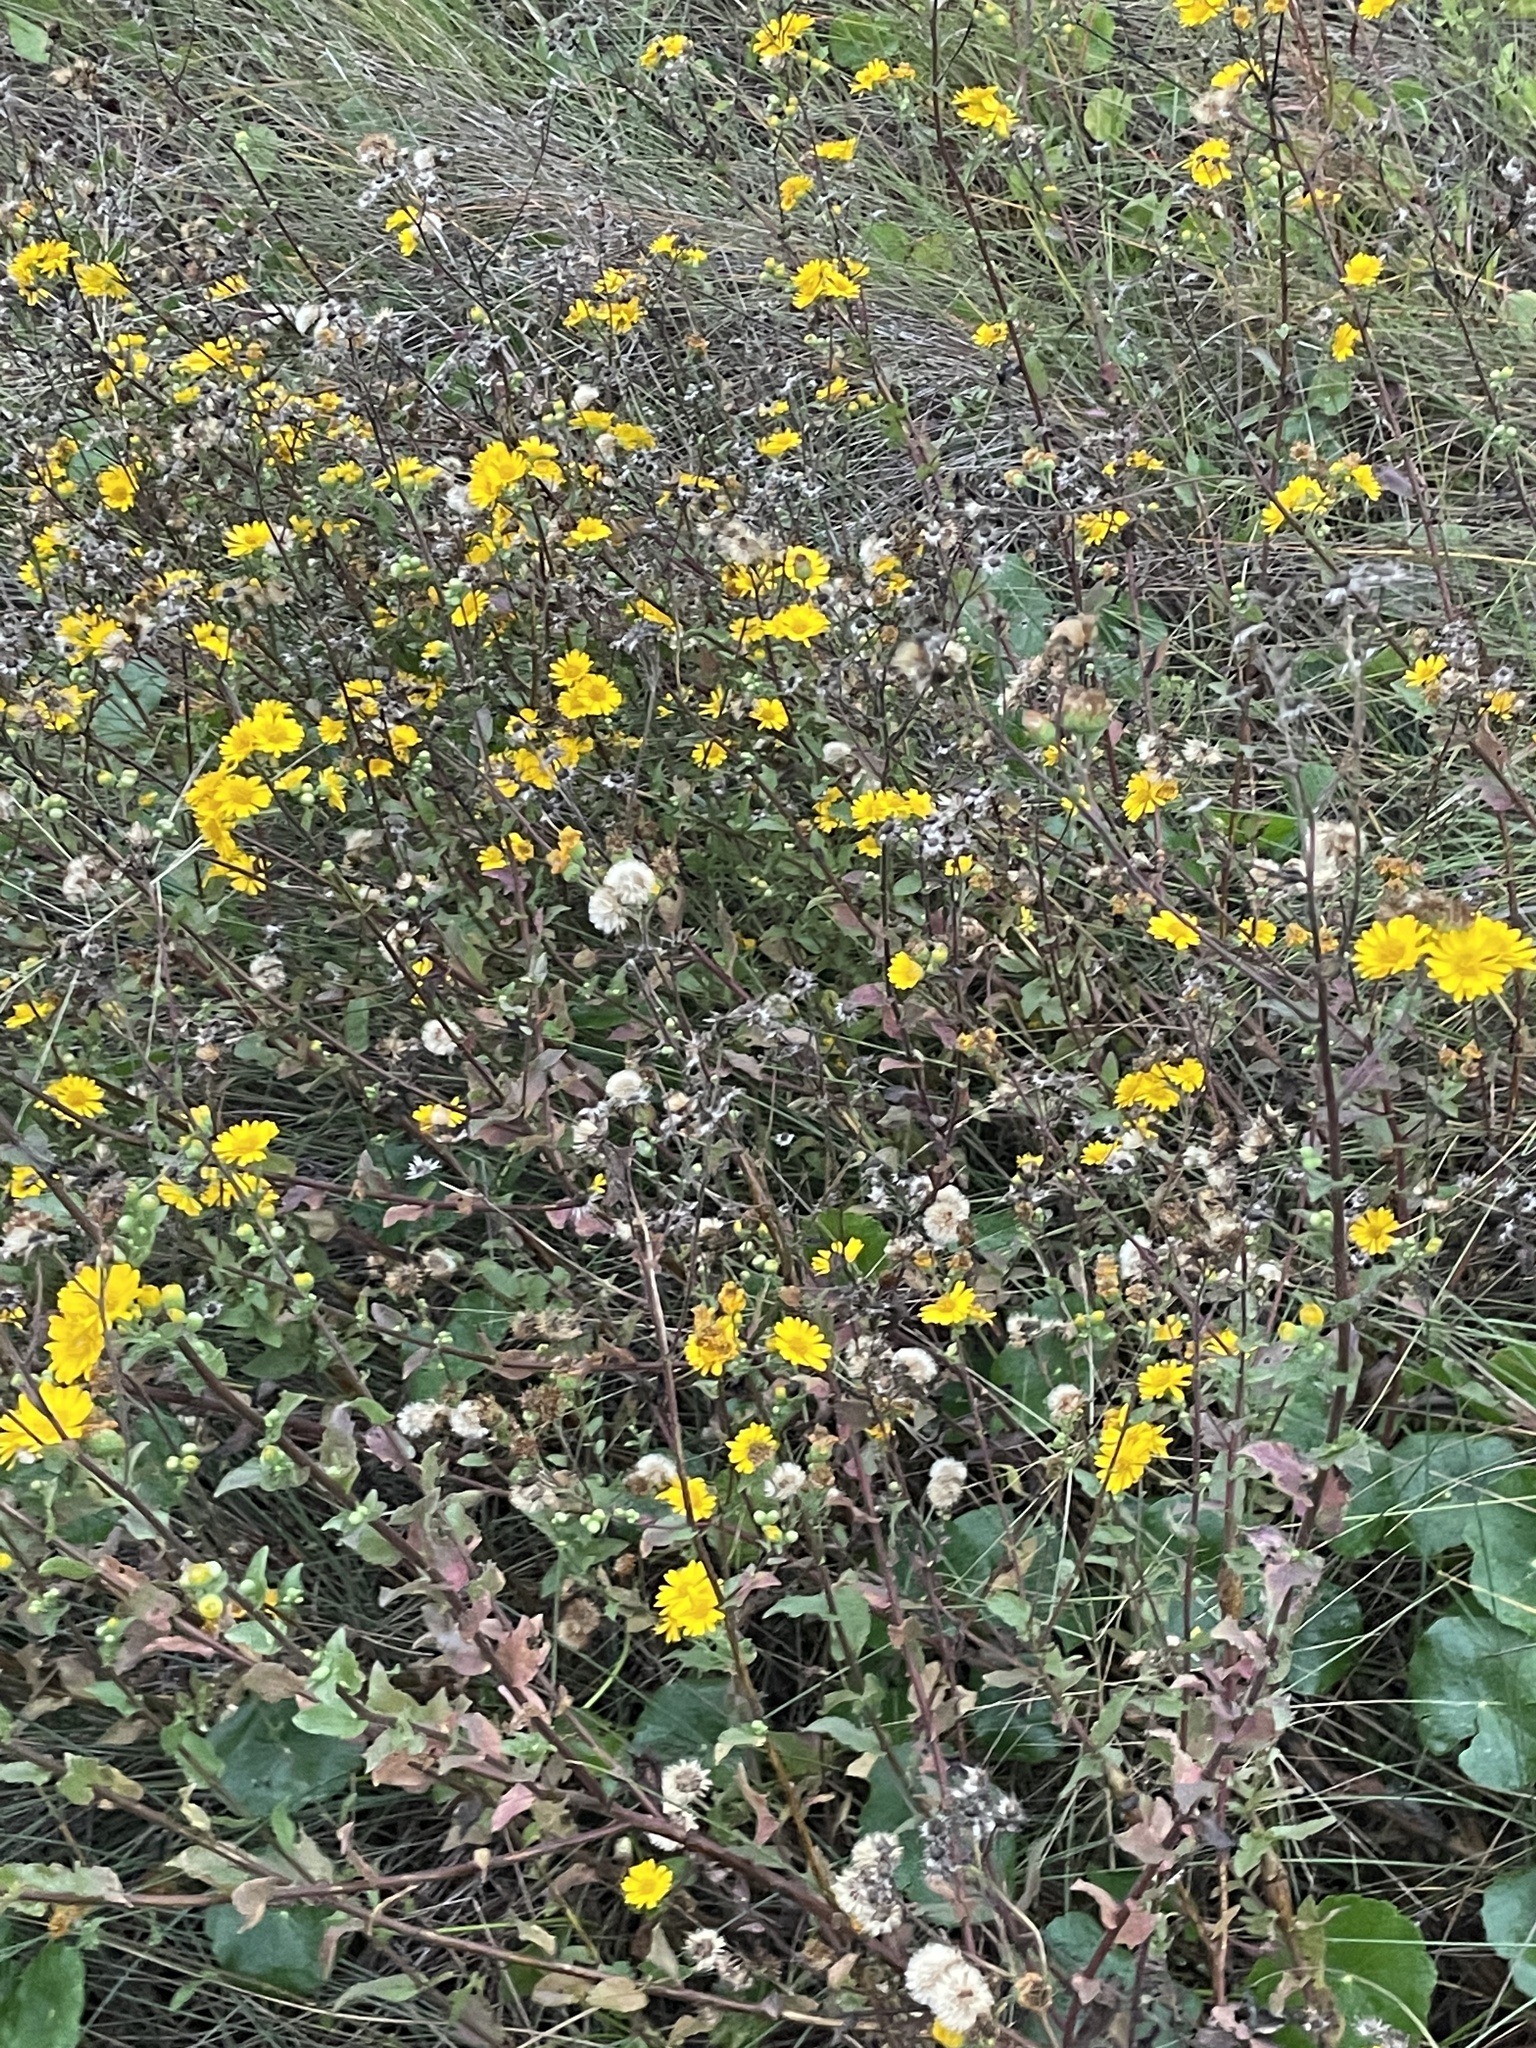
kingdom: Plantae
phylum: Tracheophyta
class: Magnoliopsida
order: Asterales
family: Asteraceae
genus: Heterotheca
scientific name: Heterotheca subaxillaris
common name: Camphorweed
